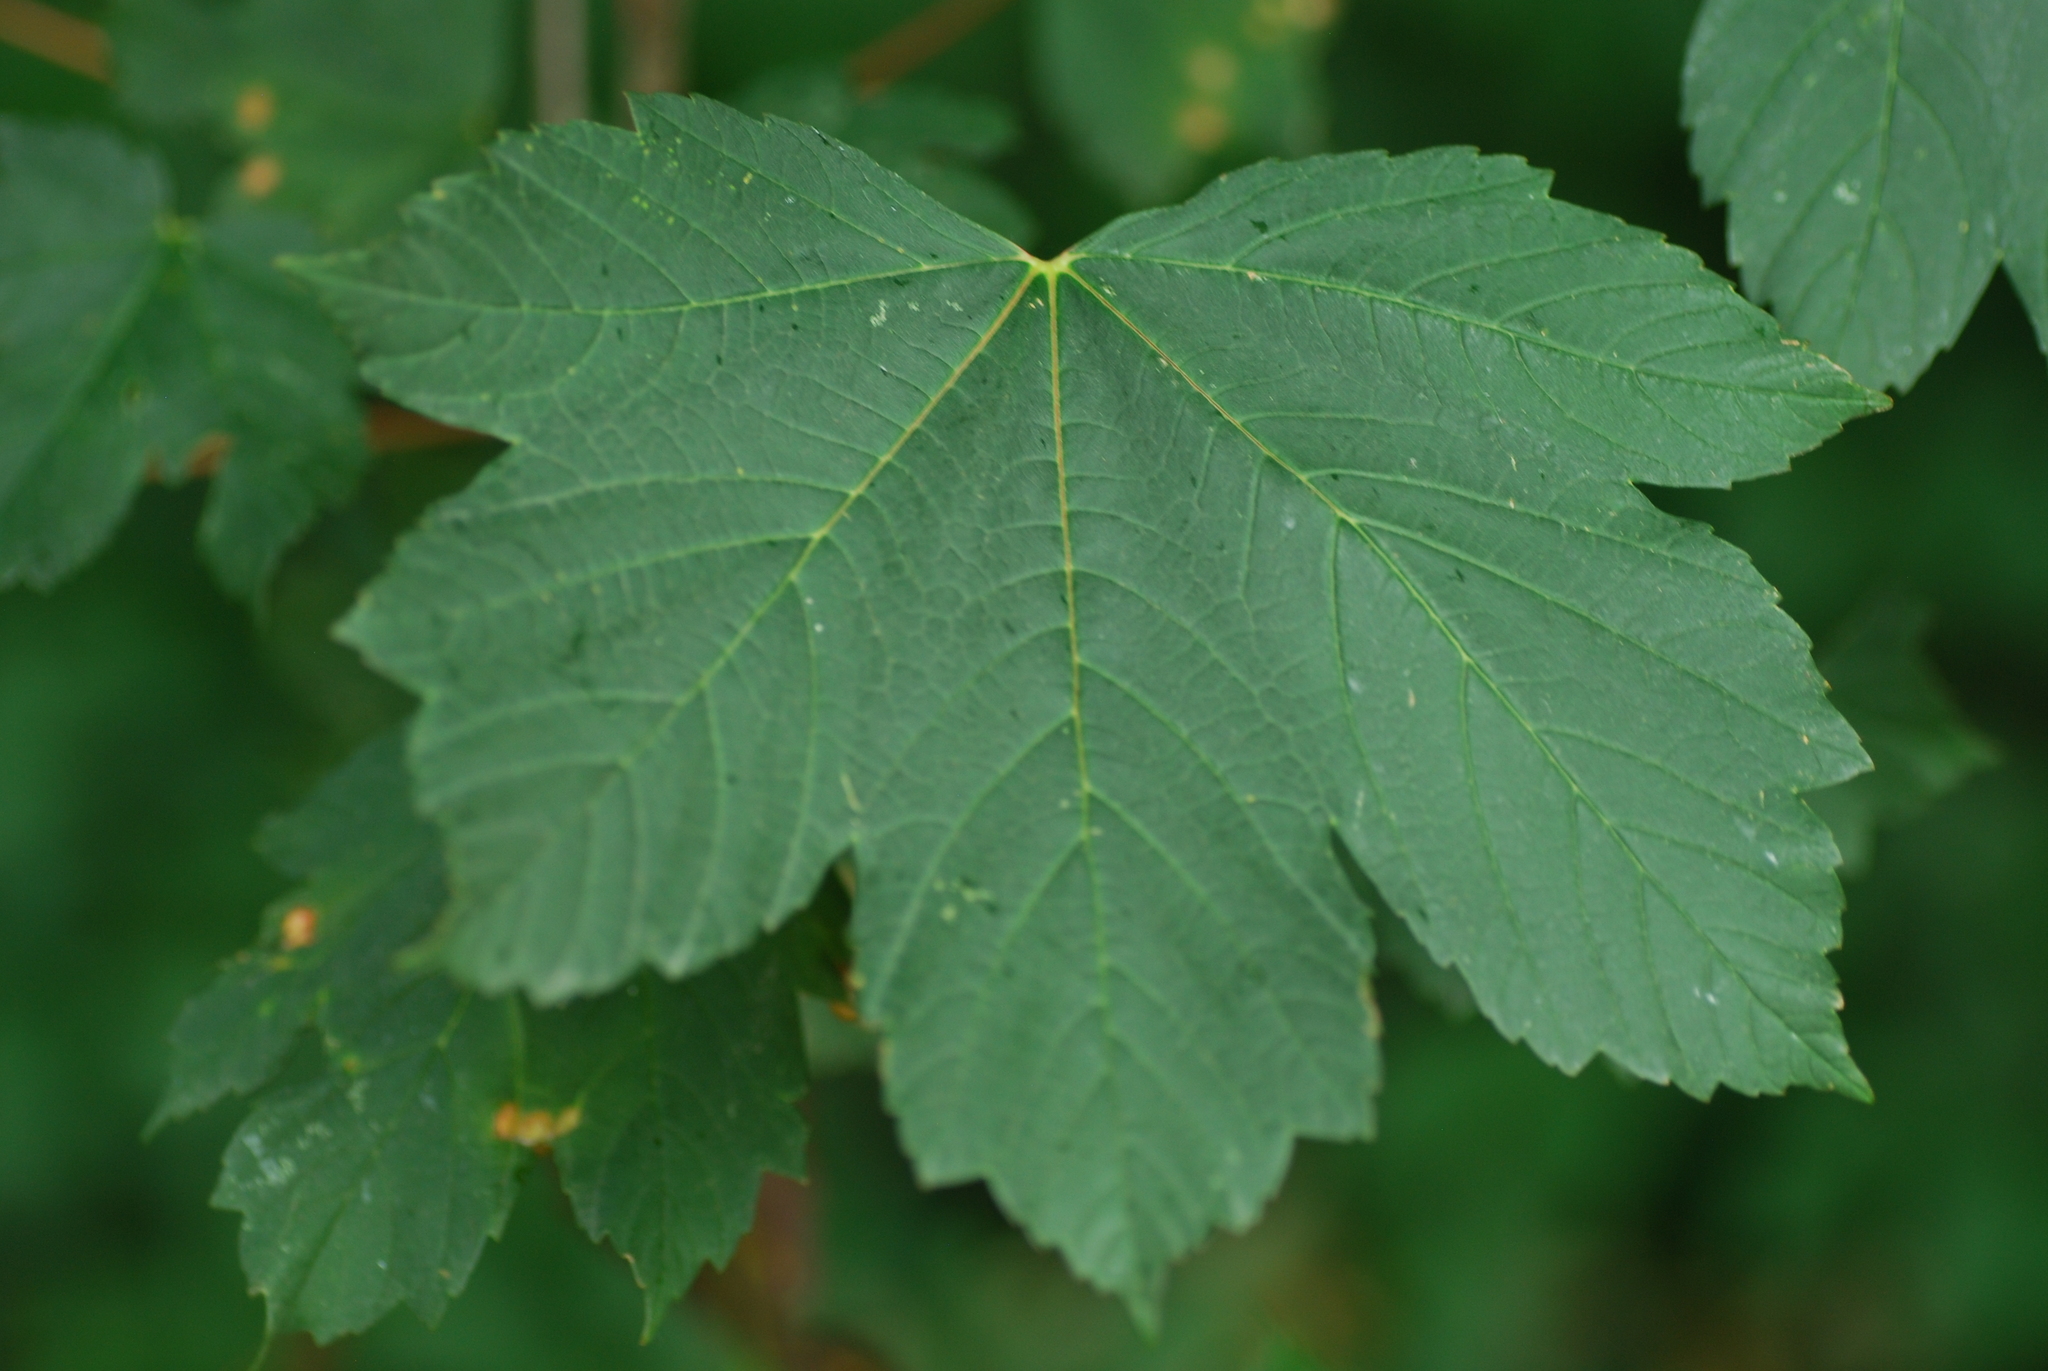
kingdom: Plantae
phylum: Tracheophyta
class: Magnoliopsida
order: Sapindales
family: Sapindaceae
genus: Acer
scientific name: Acer pseudoplatanus
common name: Sycamore
